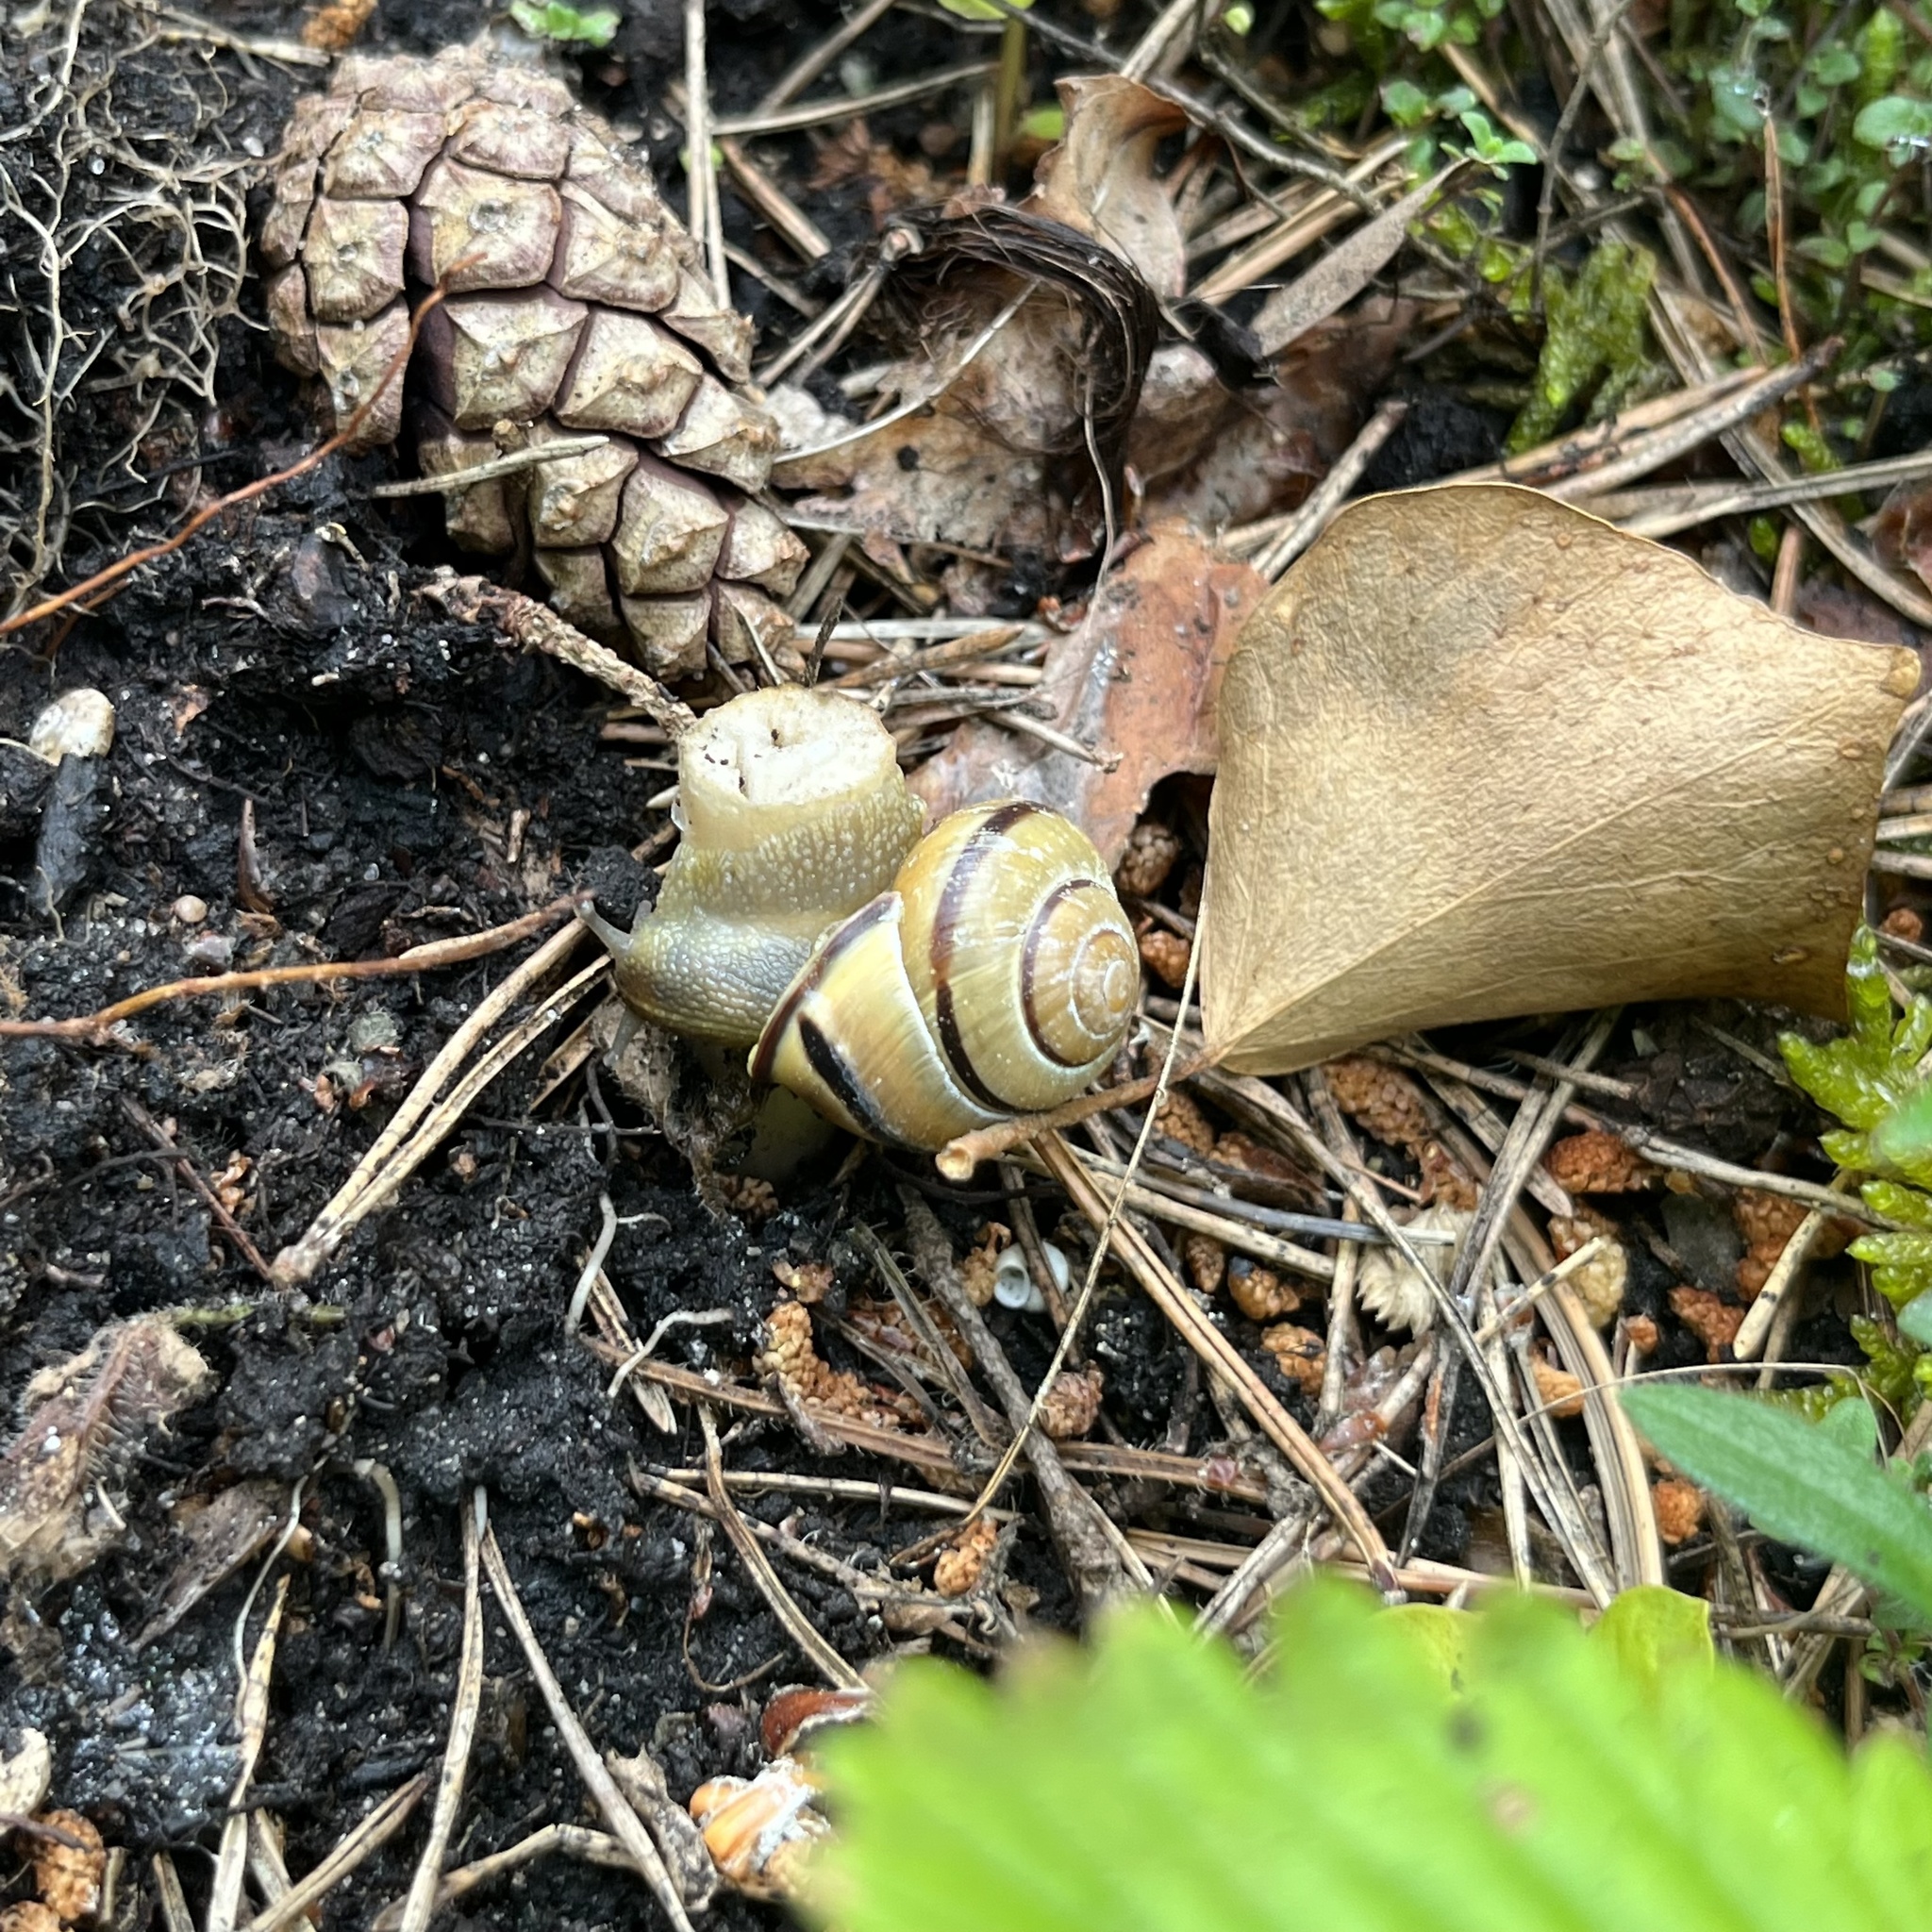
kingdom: Animalia
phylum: Mollusca
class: Gastropoda
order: Stylommatophora
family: Helicidae
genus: Cepaea
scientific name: Cepaea nemoralis
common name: Grovesnail
